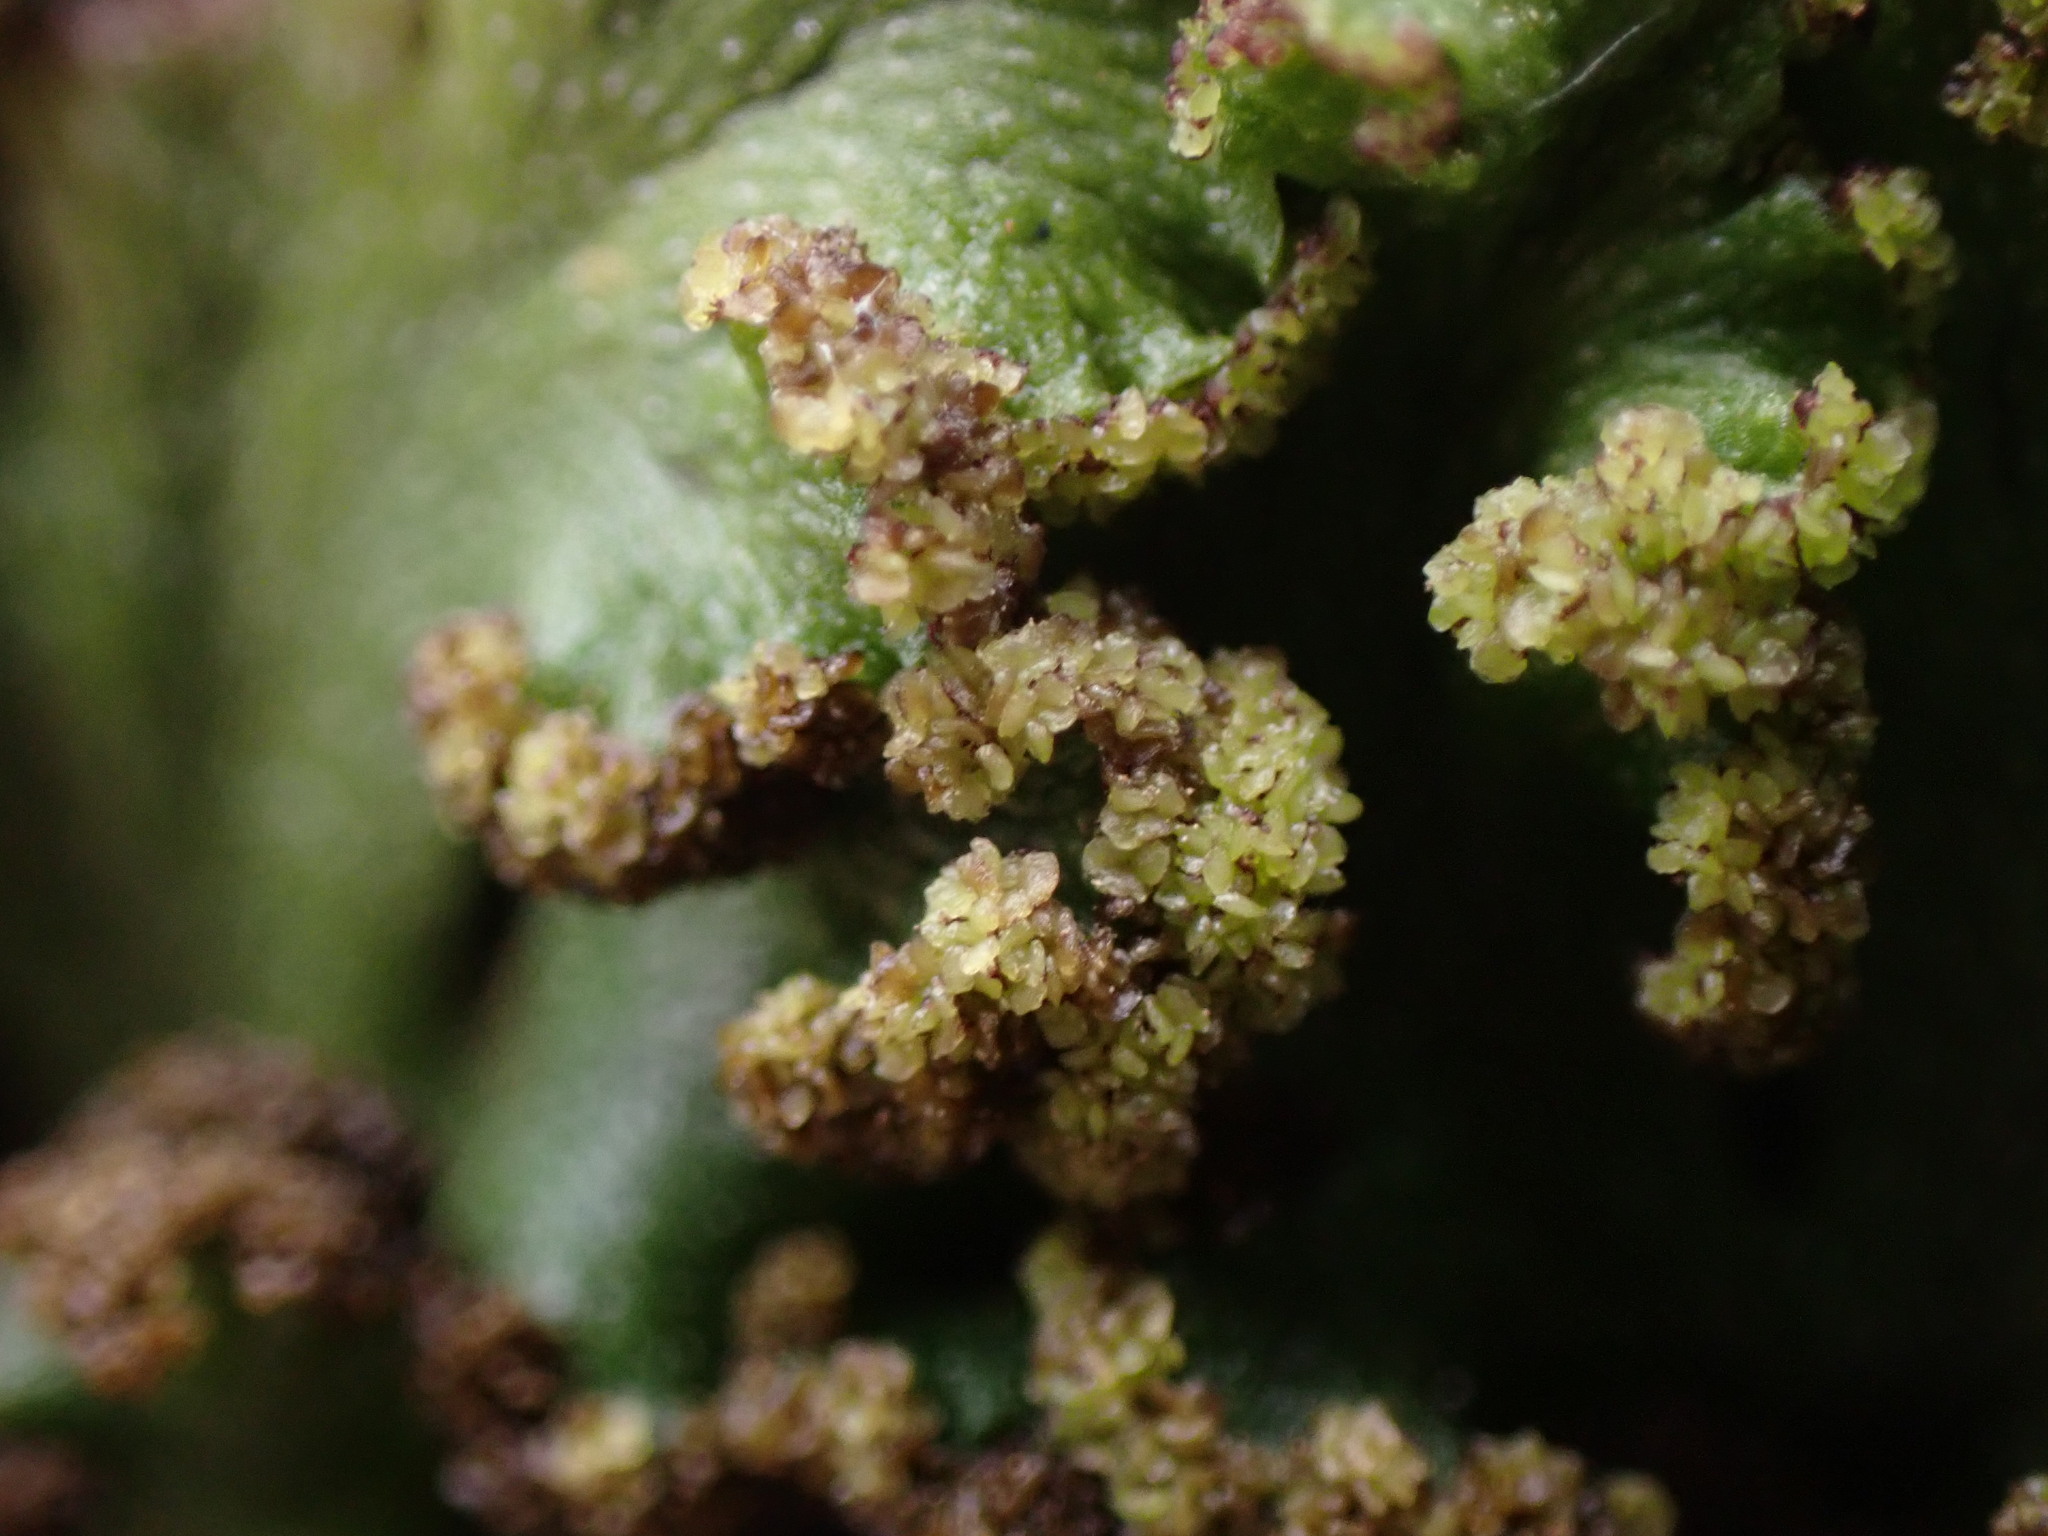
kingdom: Plantae
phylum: Marchantiophyta
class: Marchantiopsida
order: Marchantiales
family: Conocephalaceae
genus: Sandea
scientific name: Sandea japonica
